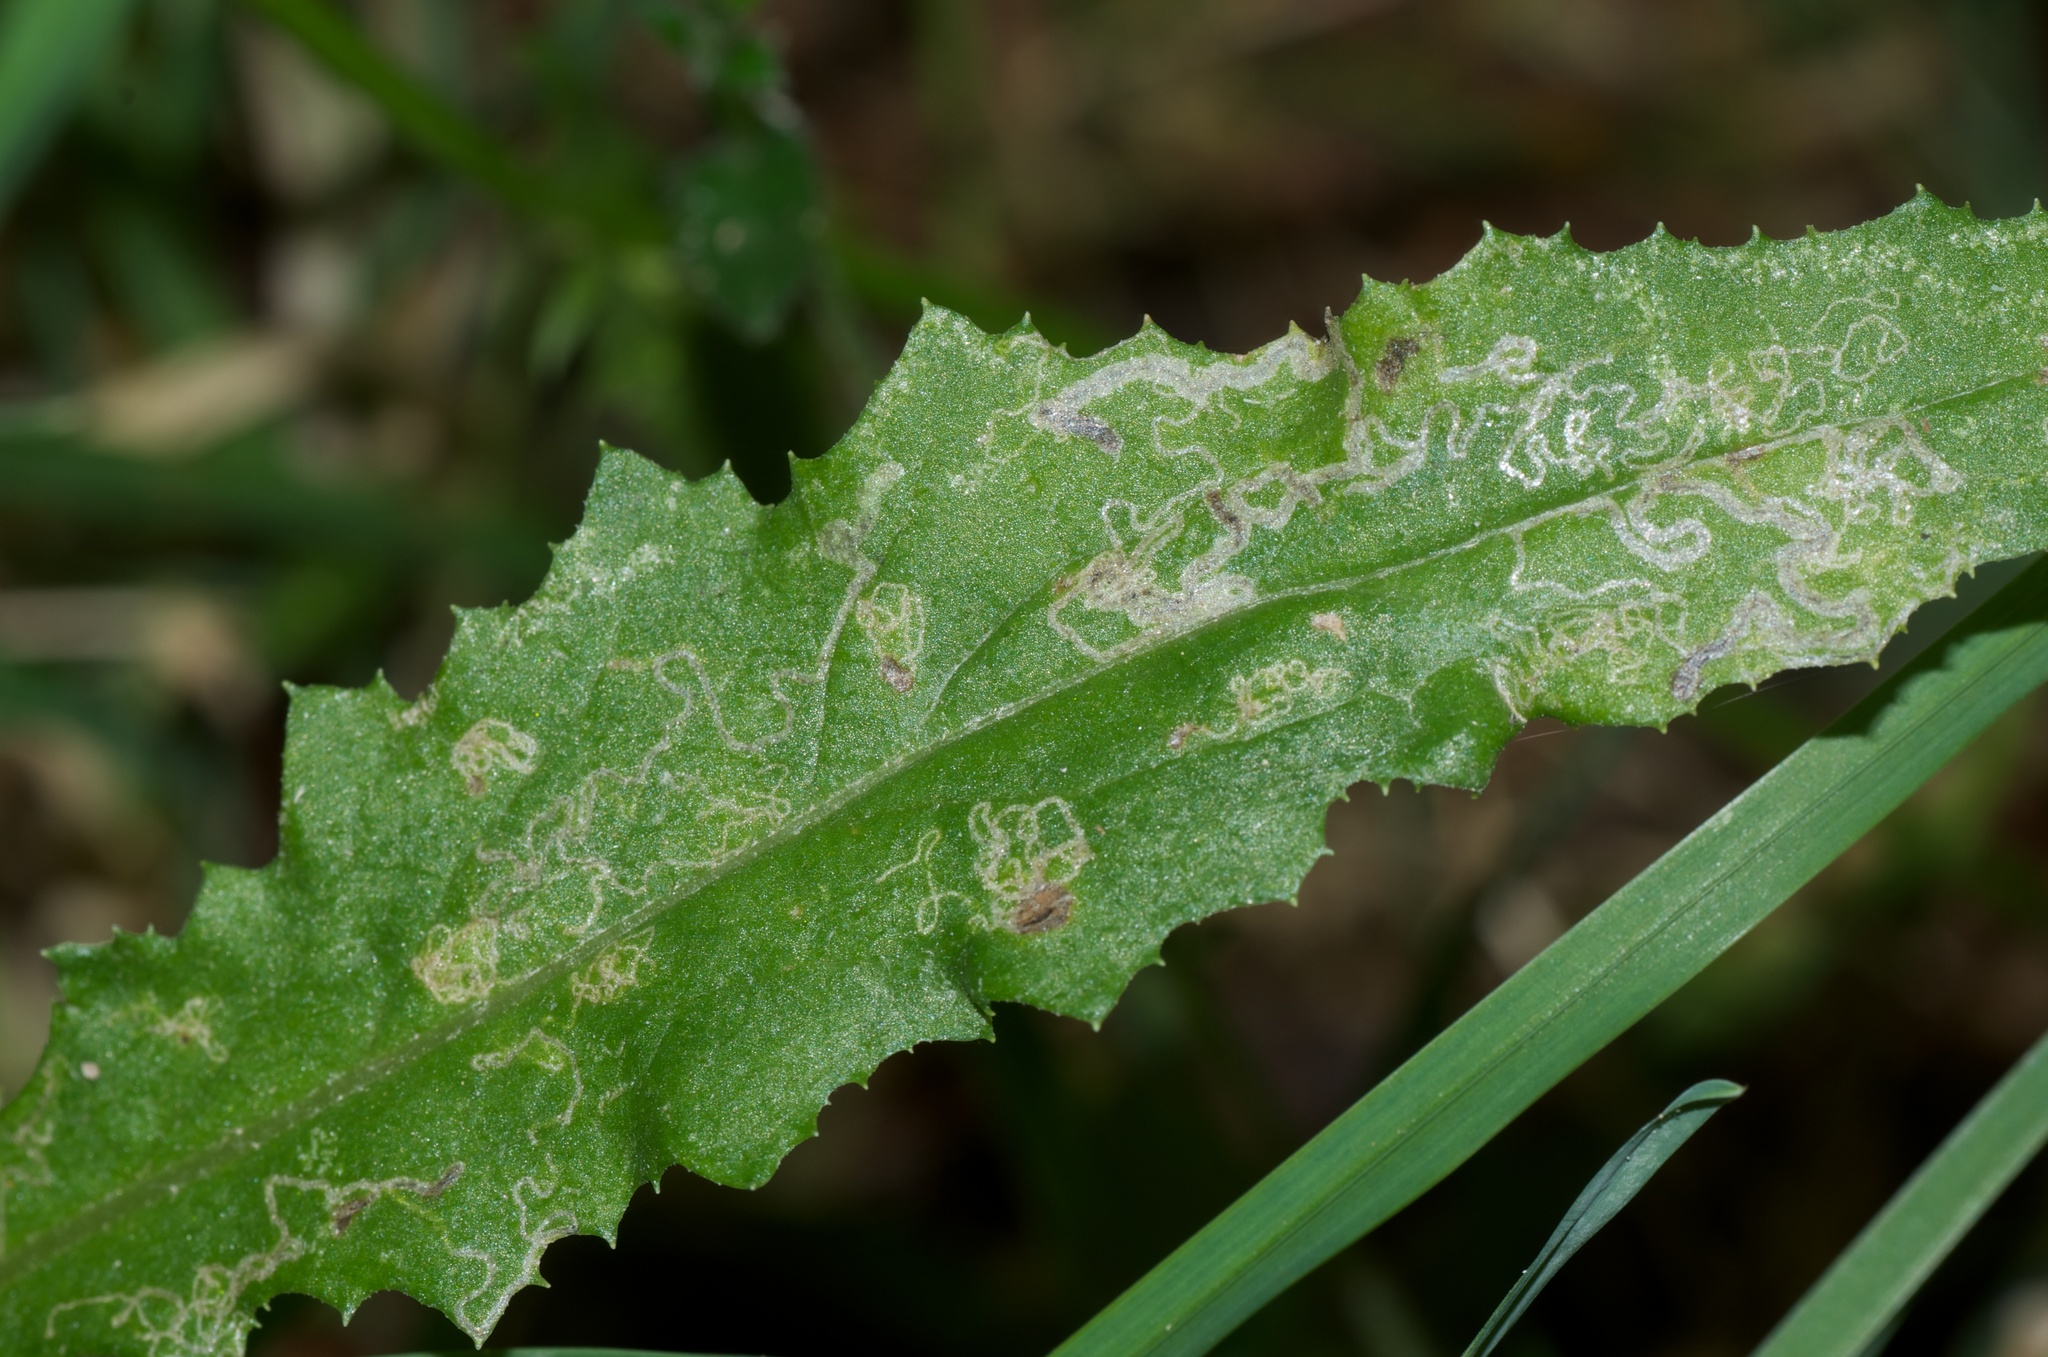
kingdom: Animalia
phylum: Arthropoda
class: Insecta
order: Lepidoptera
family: Nepticulidae
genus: Stigmella
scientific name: Stigmella ogygia
